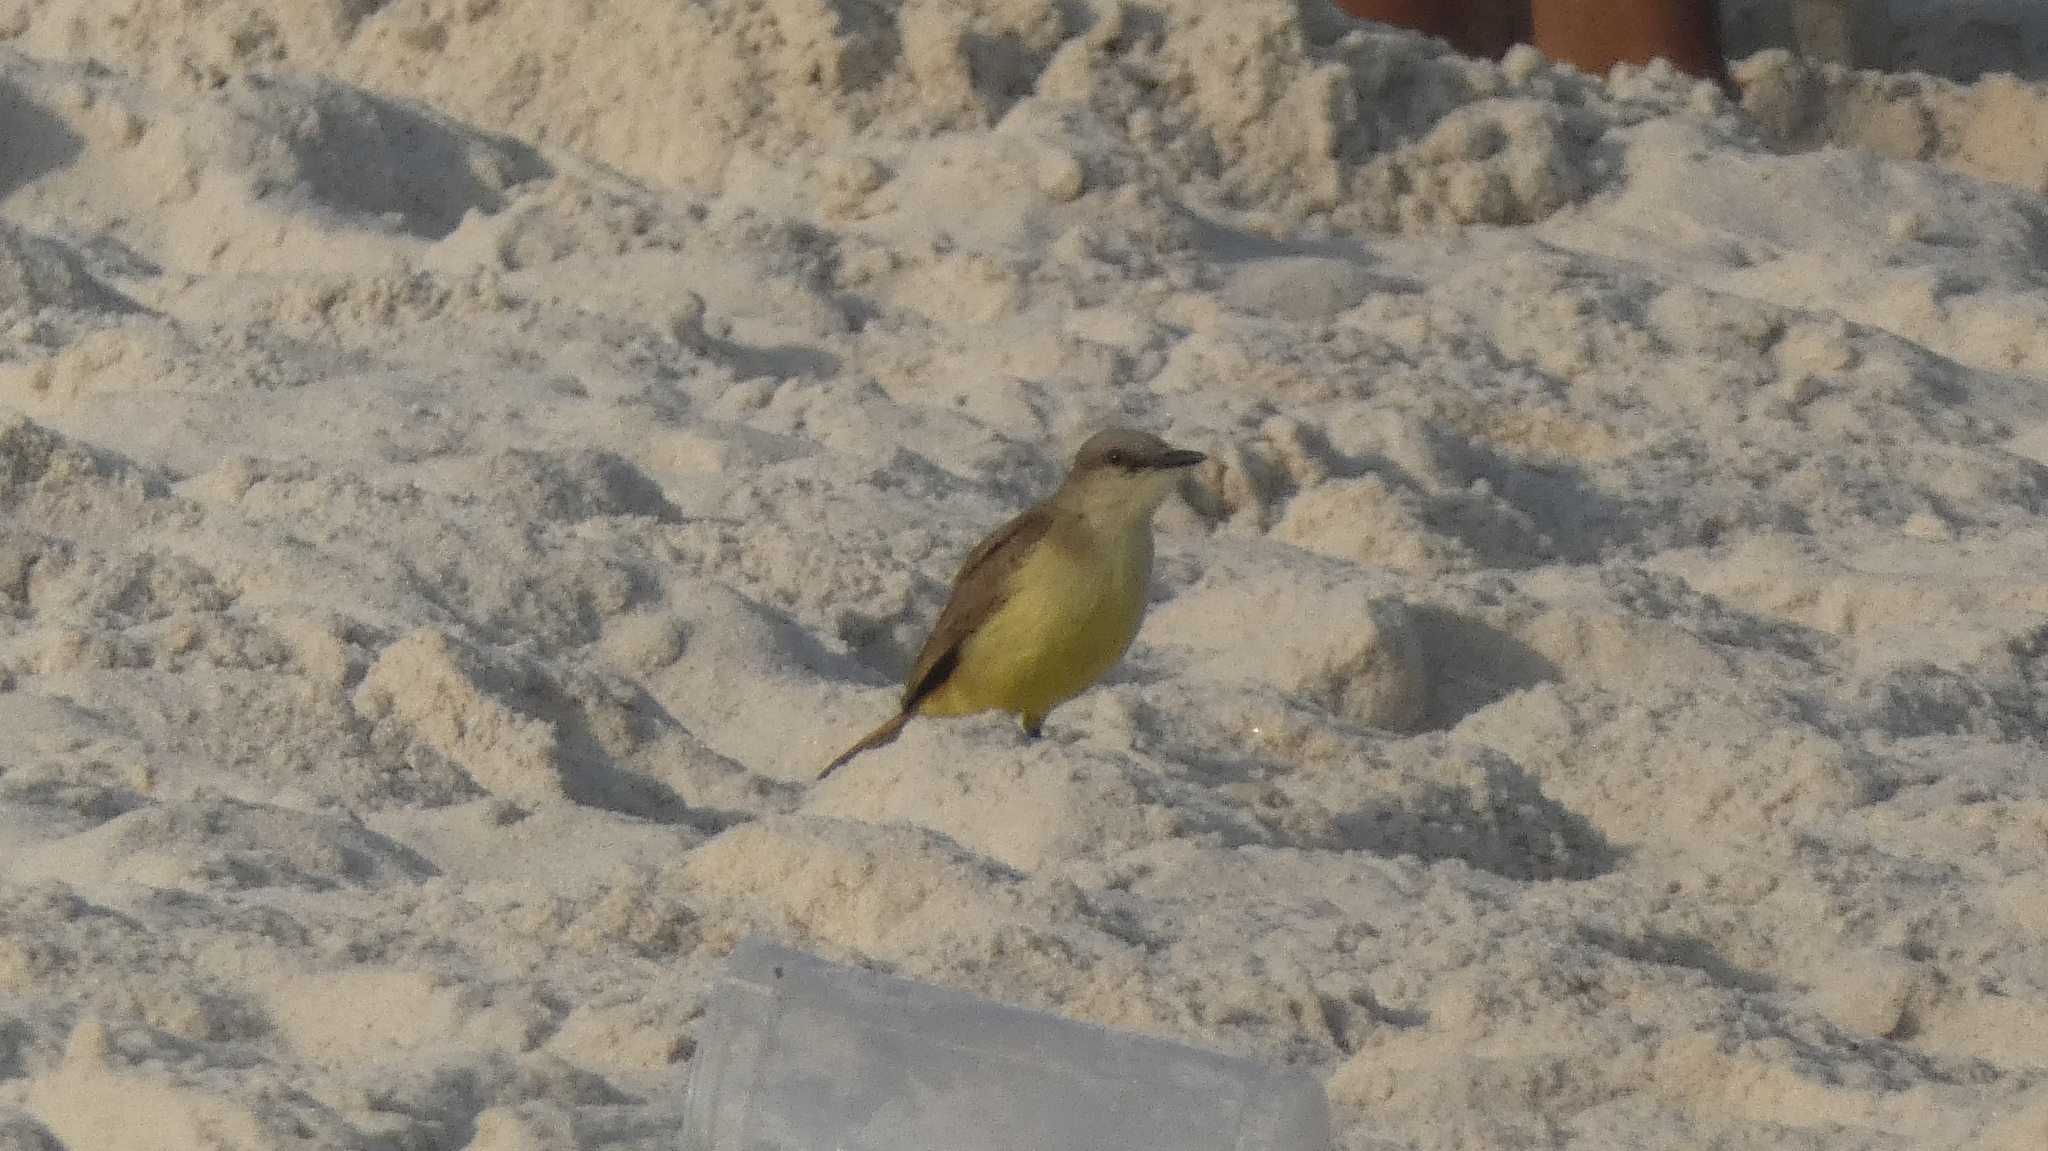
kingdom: Animalia
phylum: Chordata
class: Aves
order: Passeriformes
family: Tyrannidae
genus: Machetornis
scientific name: Machetornis rixosa
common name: Cattle tyrant
